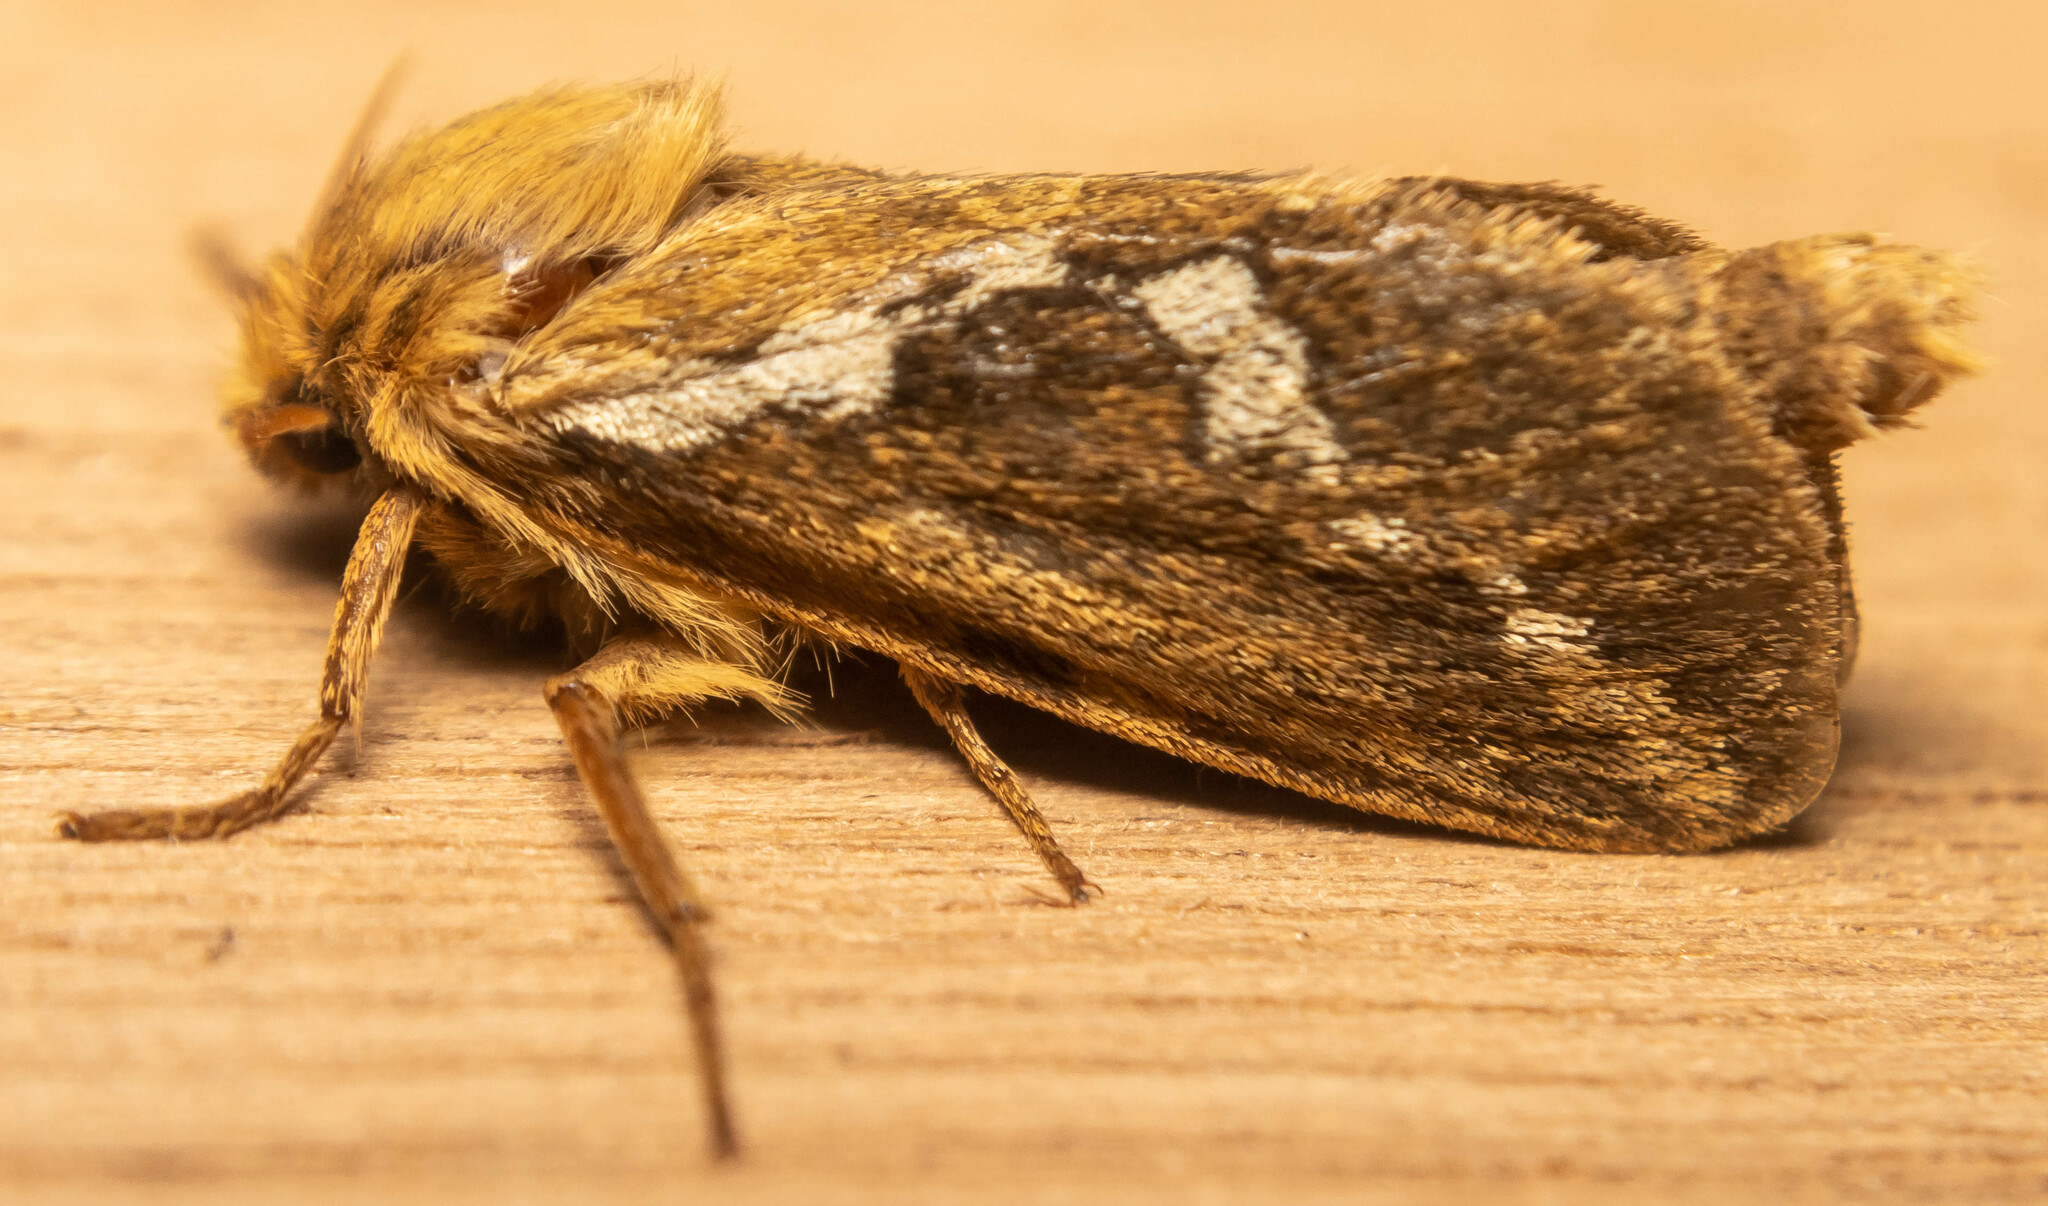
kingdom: Animalia
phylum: Arthropoda
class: Insecta
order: Lepidoptera
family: Hepialidae
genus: Korscheltellus
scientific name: Korscheltellus lupulina
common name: Common swift
